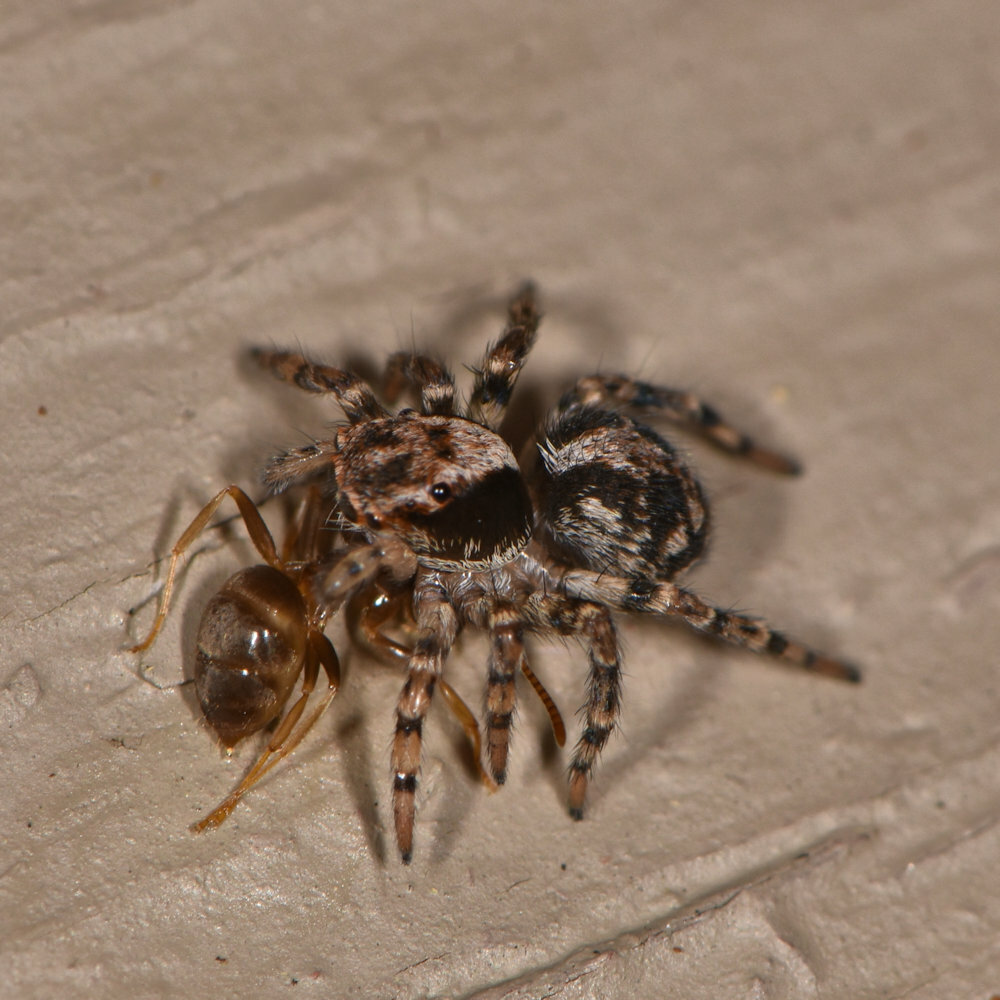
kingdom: Animalia
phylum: Arthropoda
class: Arachnida
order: Araneae
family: Salticidae
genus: Naphrys
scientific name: Naphrys pulex
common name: Flea jumping spider
